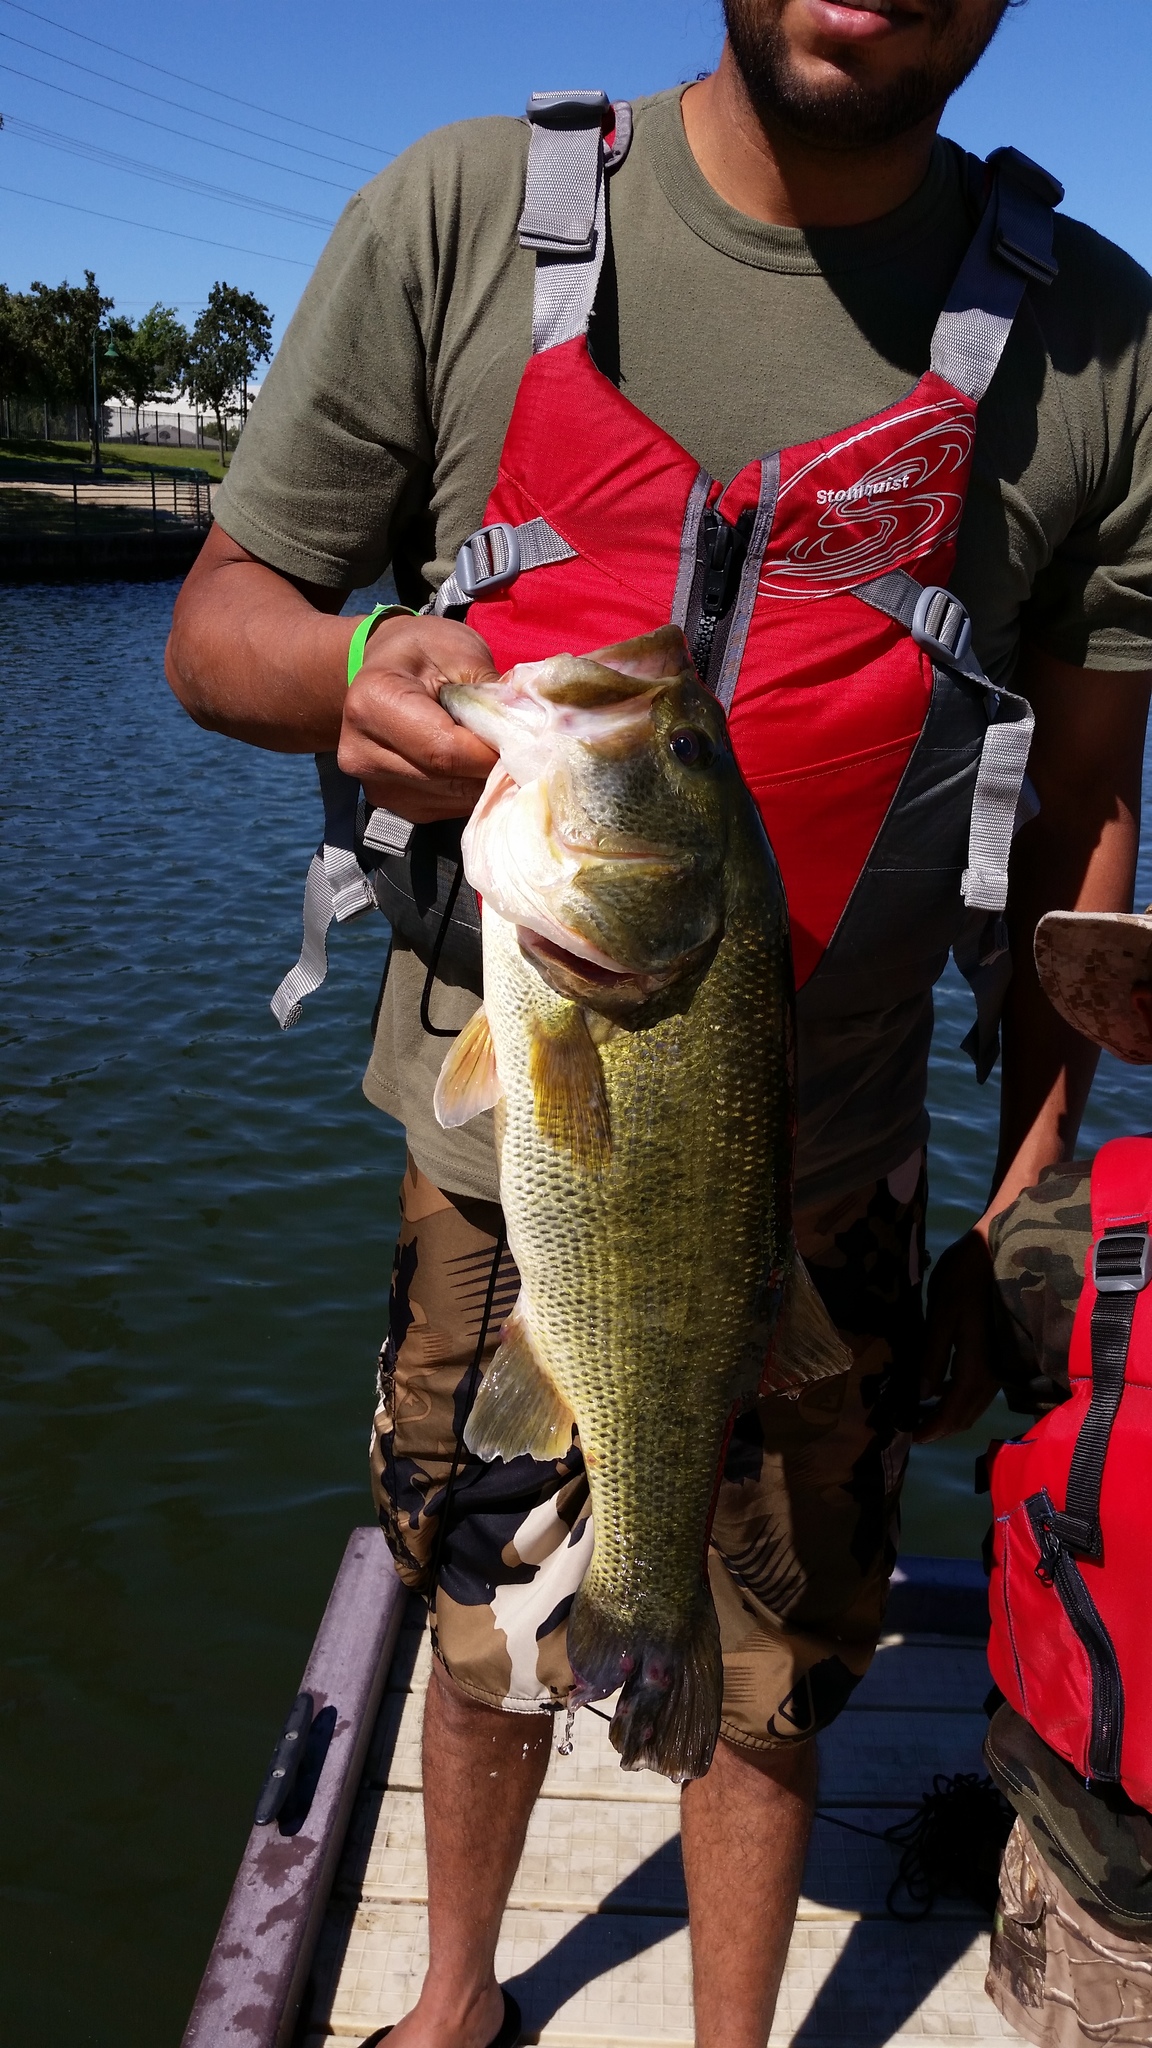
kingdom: Animalia
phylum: Chordata
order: Perciformes
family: Centrarchidae
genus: Micropterus
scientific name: Micropterus
